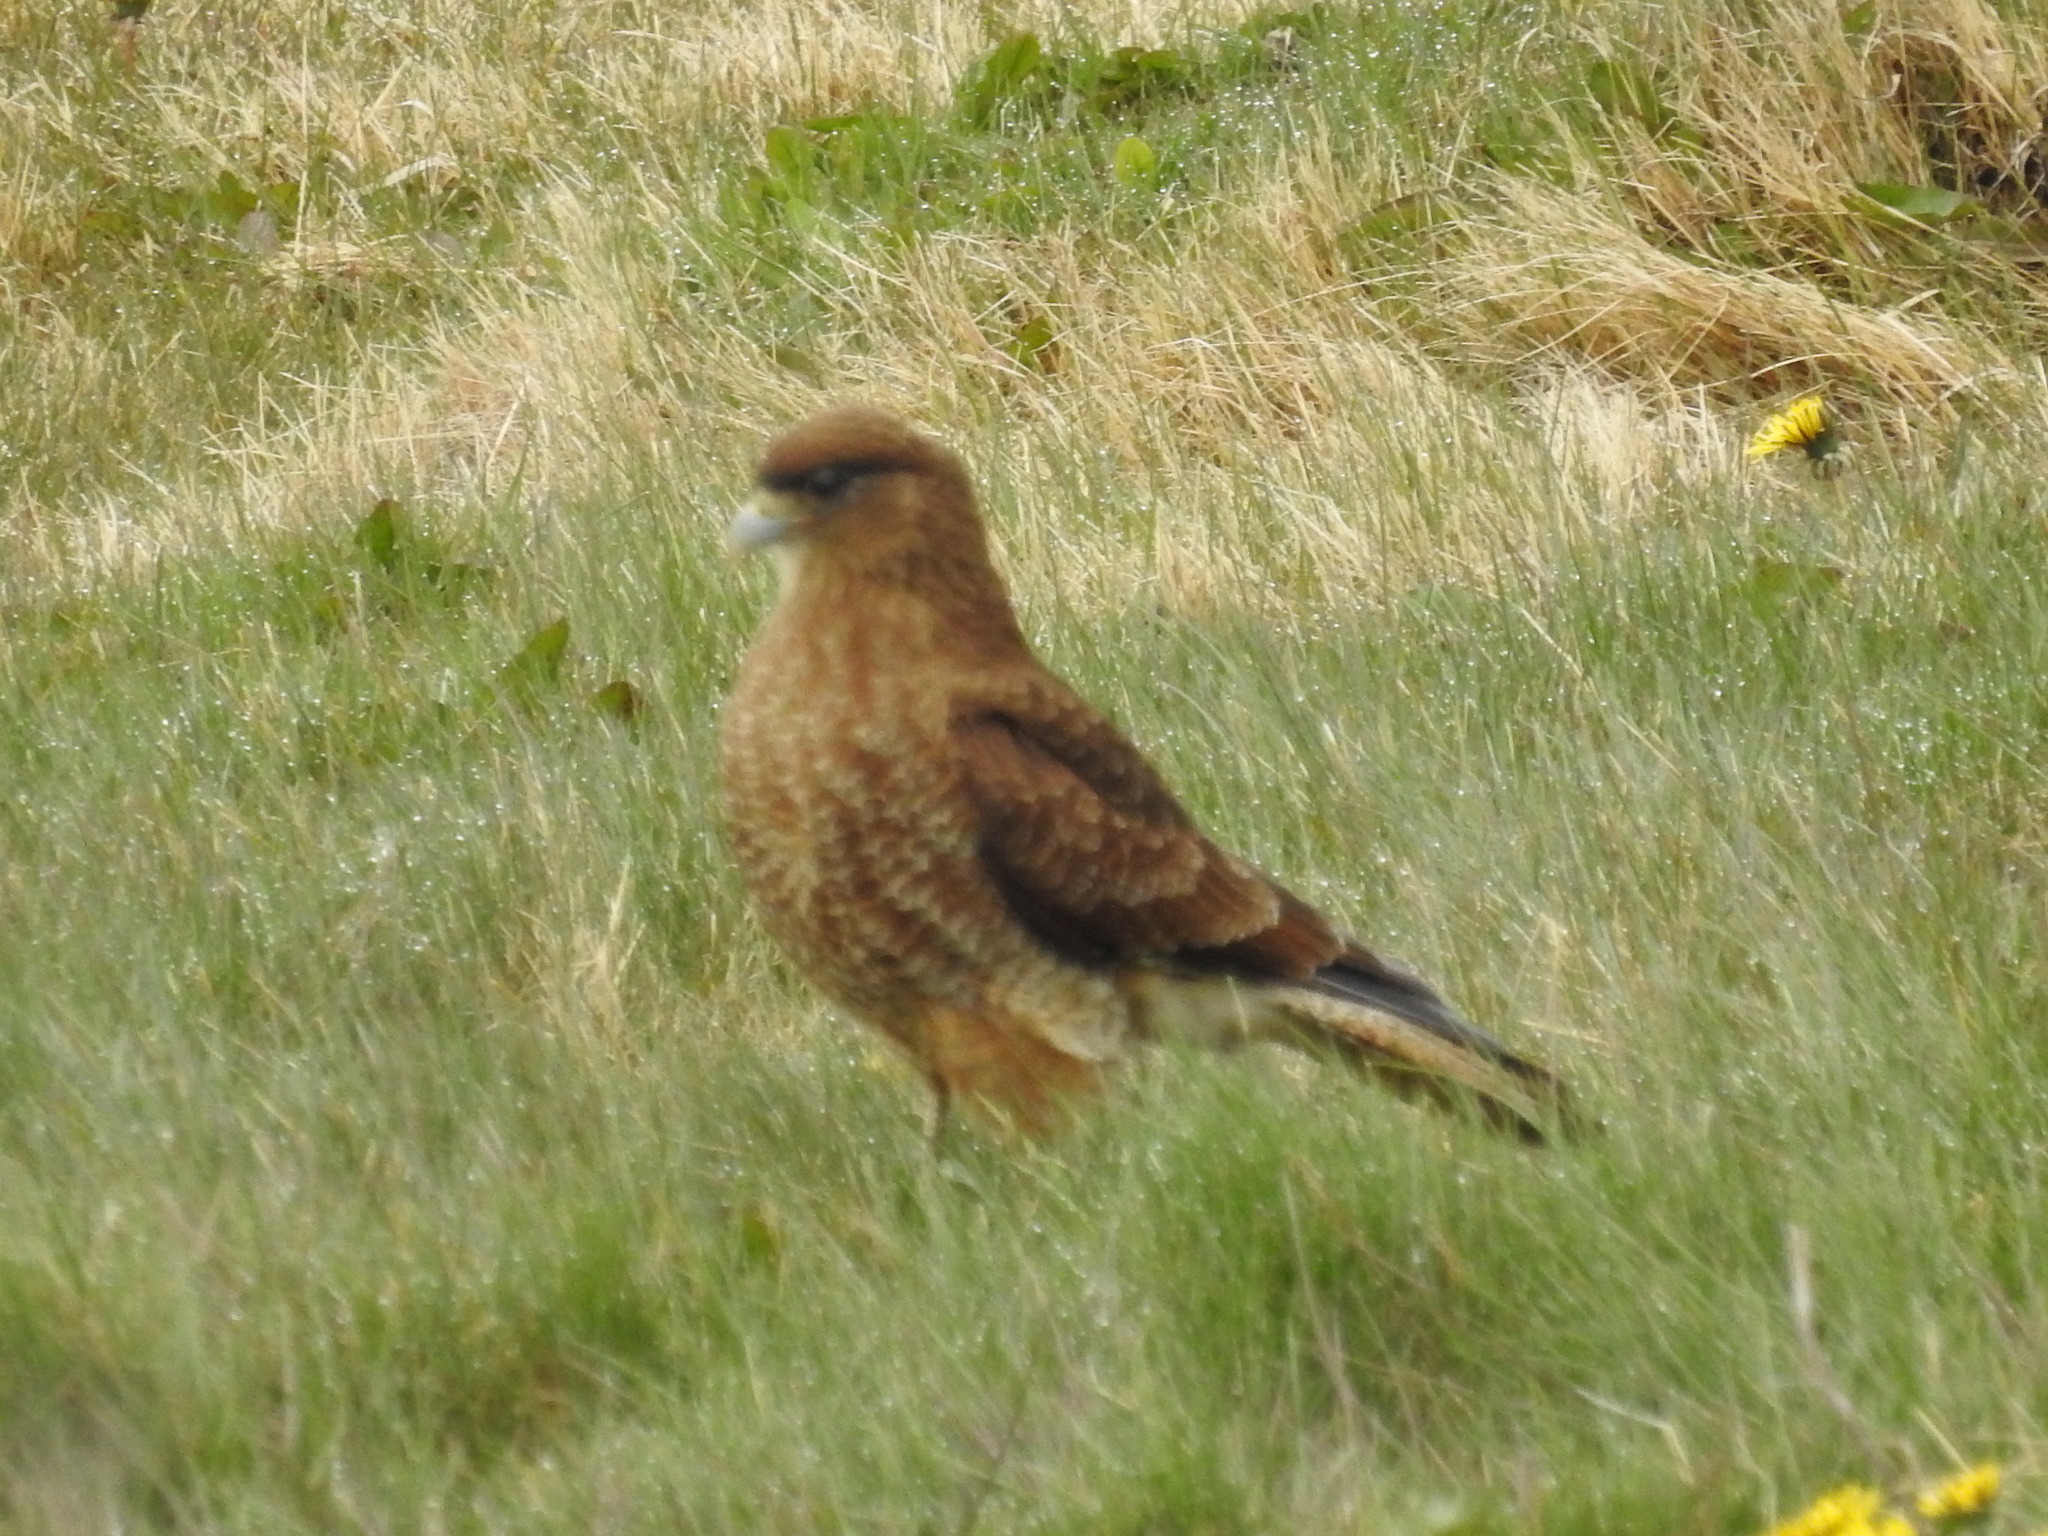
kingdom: Animalia
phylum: Chordata
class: Aves
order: Falconiformes
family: Falconidae
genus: Daptrius
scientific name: Daptrius
